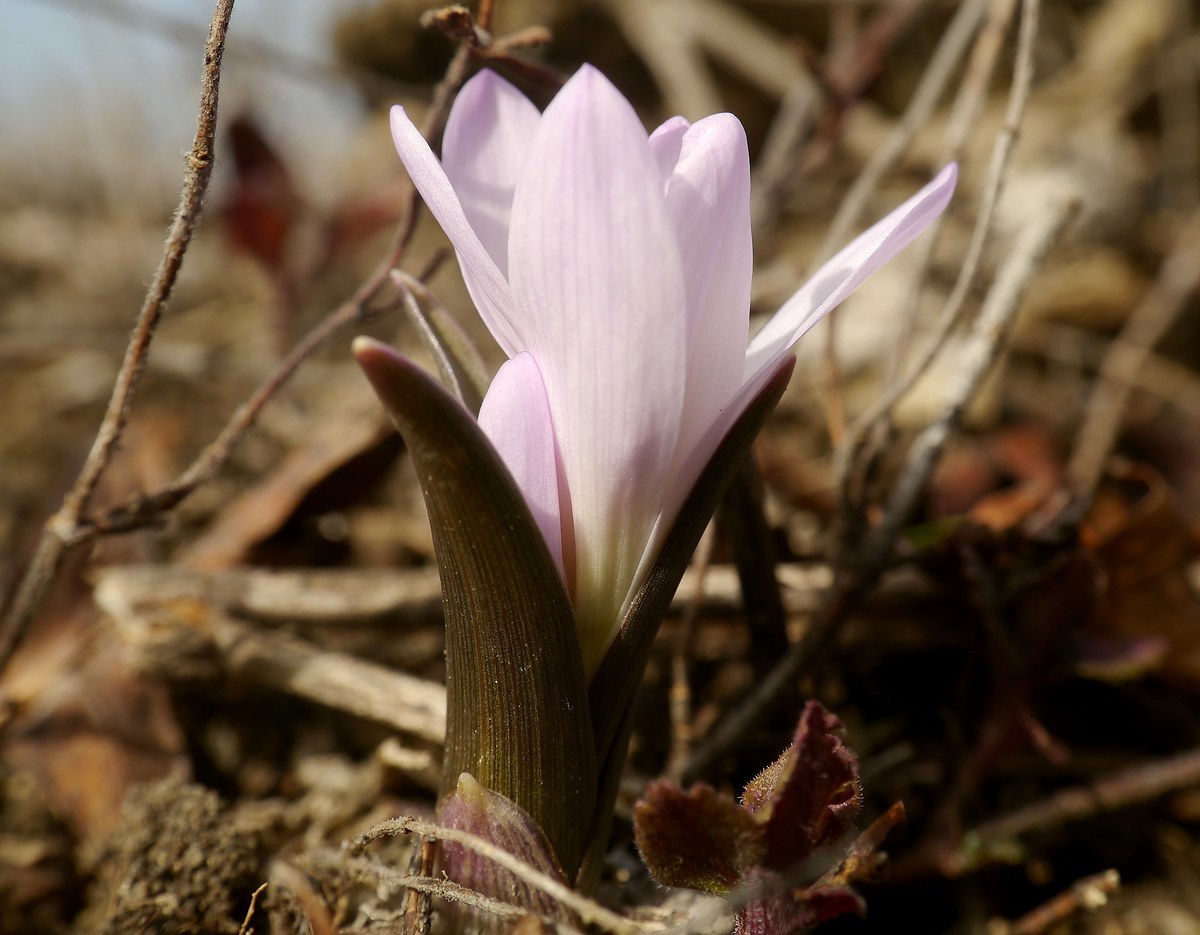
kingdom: Plantae
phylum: Tracheophyta
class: Liliopsida
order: Liliales
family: Colchicaceae
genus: Colchicum
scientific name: Colchicum bulbocodium
